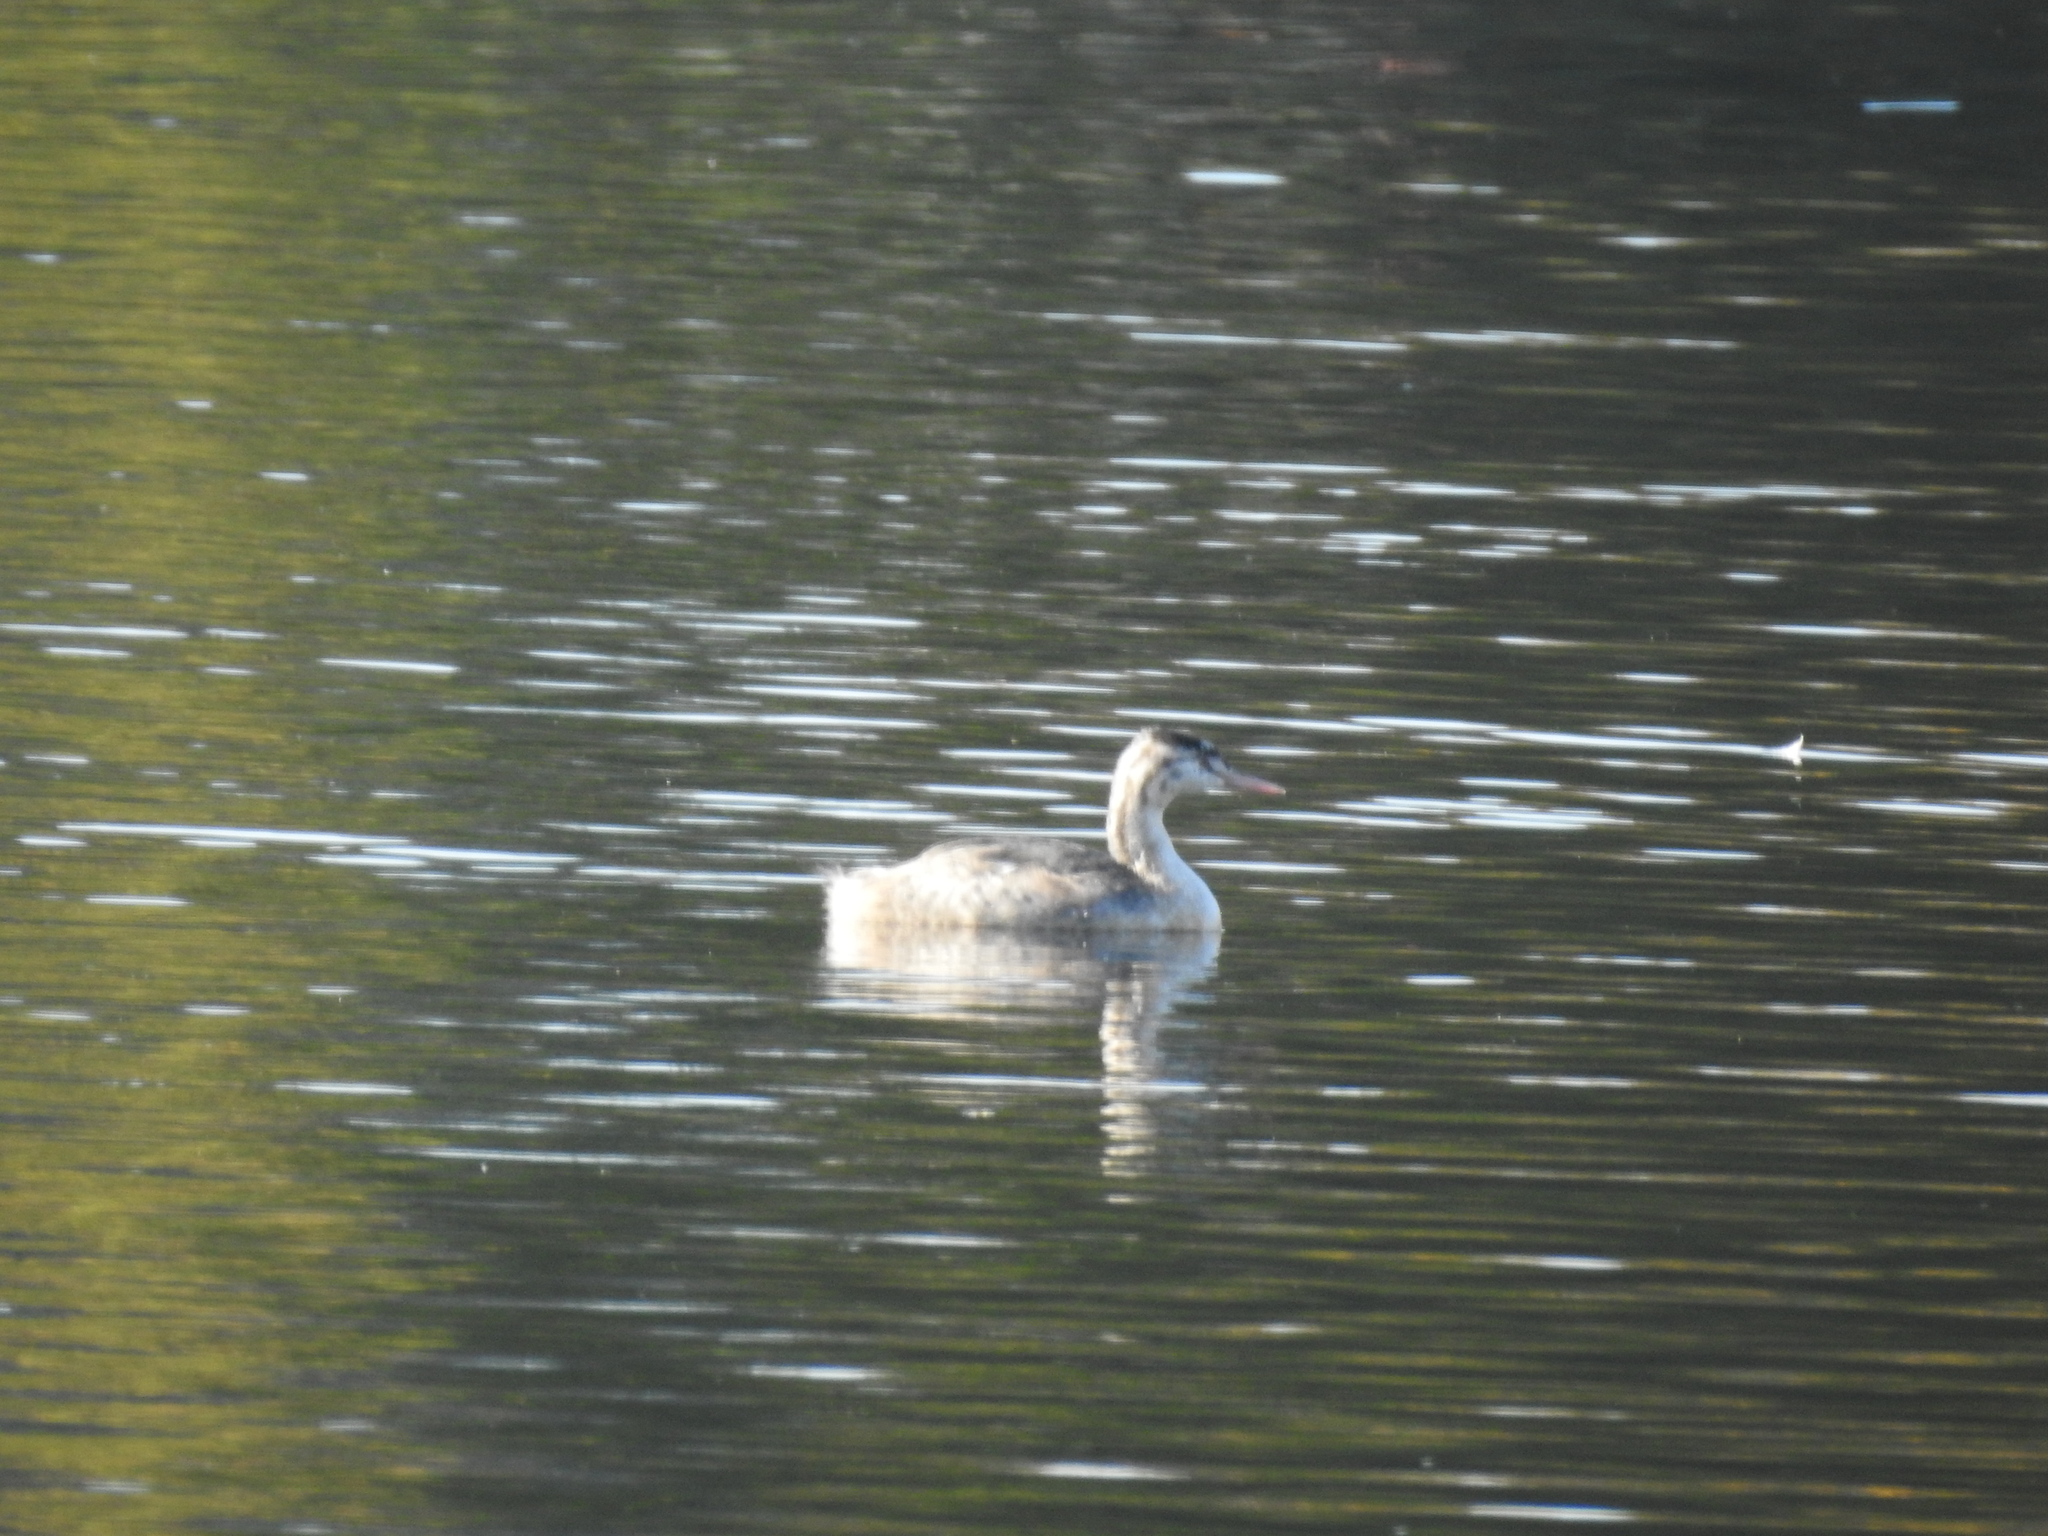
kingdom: Animalia
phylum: Chordata
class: Aves
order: Podicipediformes
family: Podicipedidae
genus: Podiceps
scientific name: Podiceps cristatus
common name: Great crested grebe
